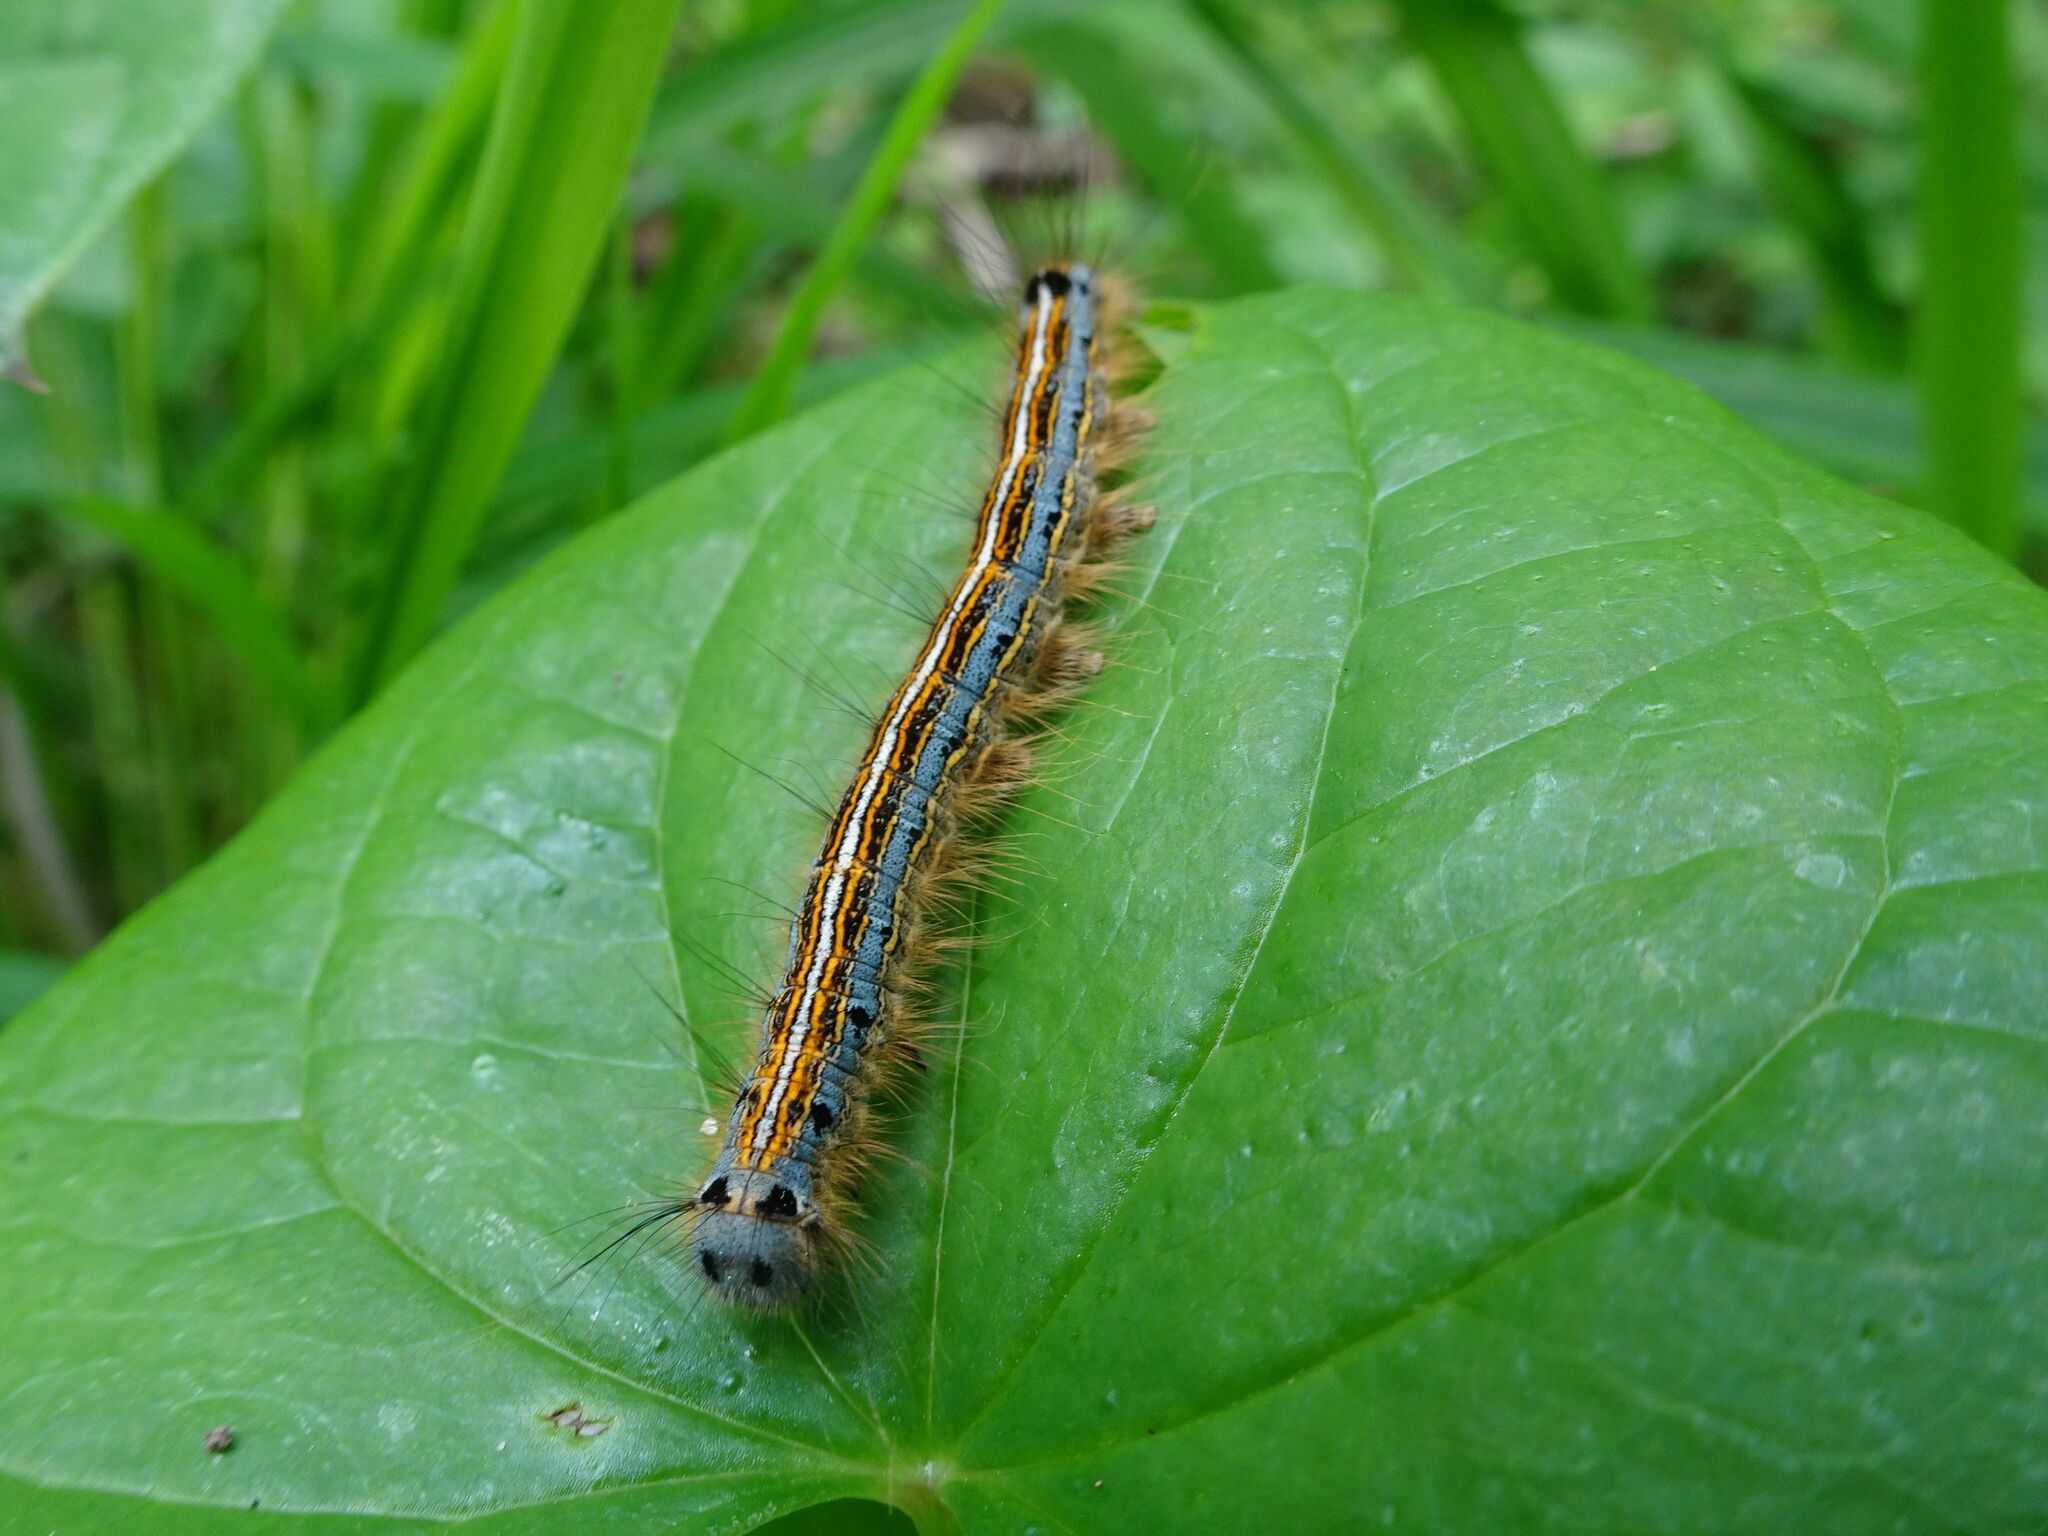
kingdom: Animalia
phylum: Arthropoda
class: Insecta
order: Lepidoptera
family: Lasiocampidae
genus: Malacosoma
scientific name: Malacosoma neustria
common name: The lackey
